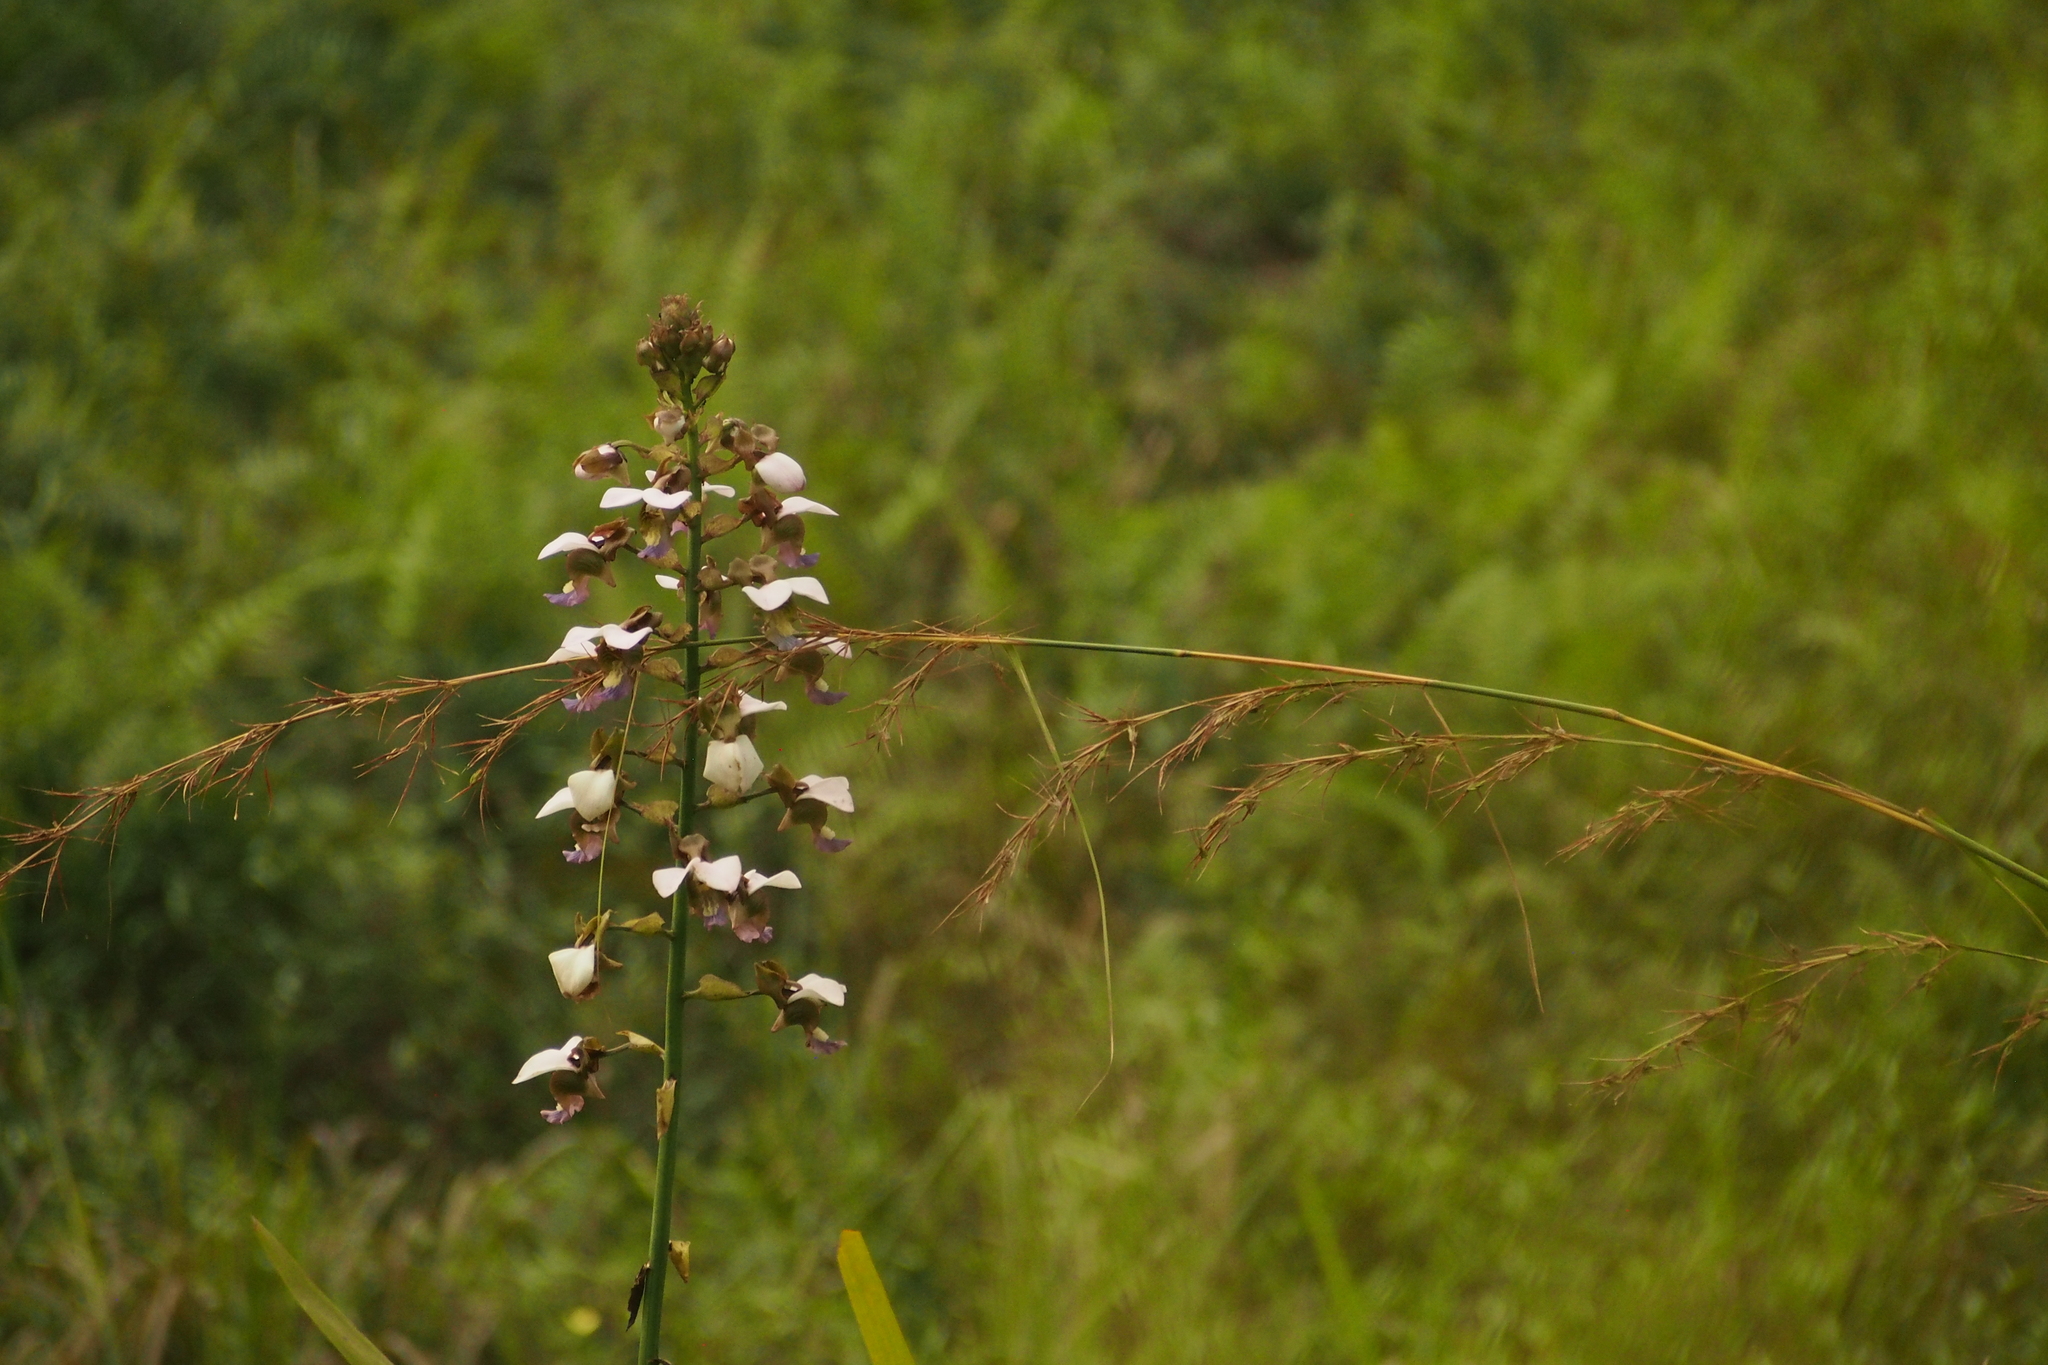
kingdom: Plantae
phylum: Tracheophyta
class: Liliopsida
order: Asparagales
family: Orchidaceae
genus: Eulophia
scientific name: Eulophia horsfallii
